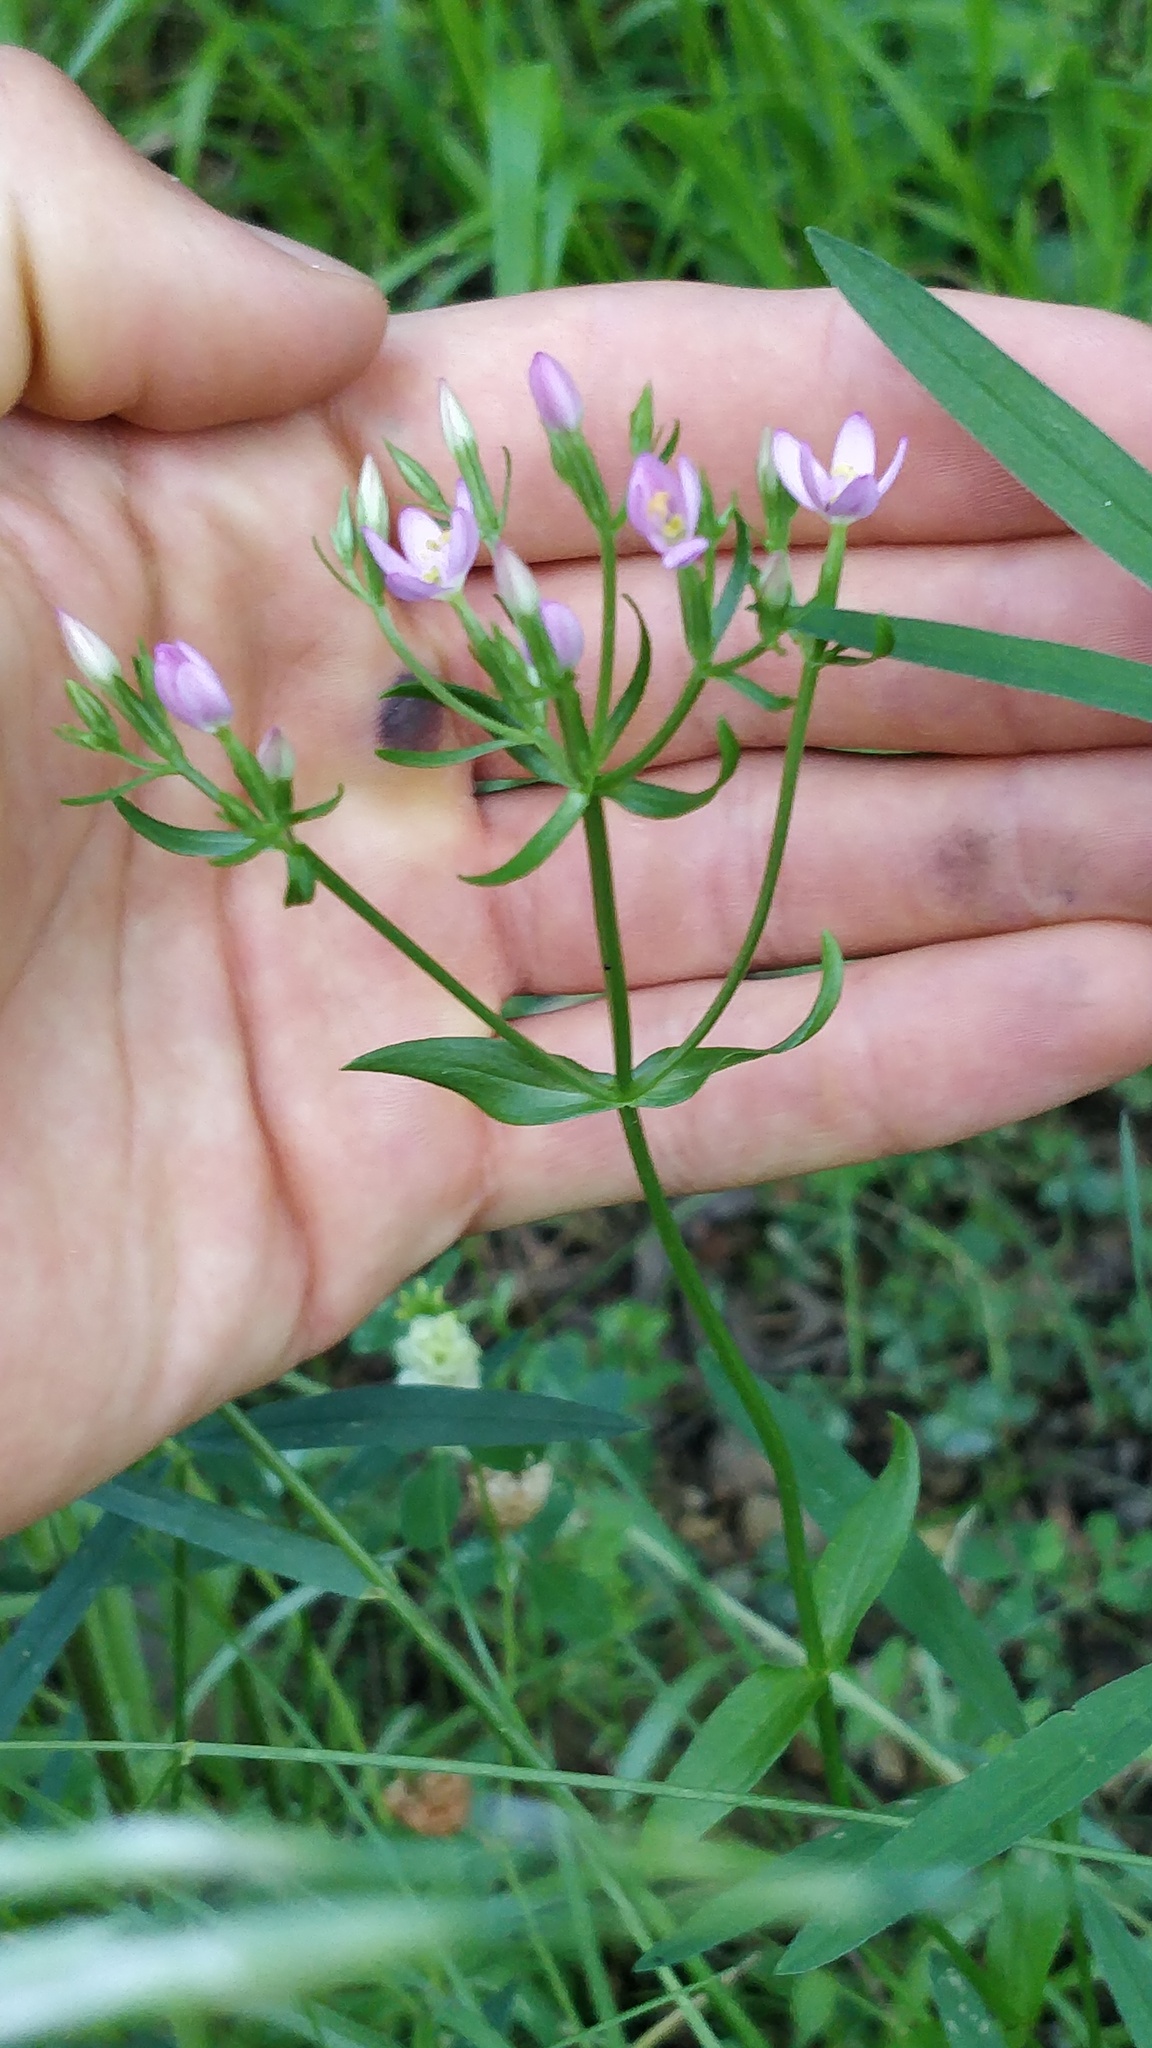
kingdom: Plantae
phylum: Tracheophyta
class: Magnoliopsida
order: Gentianales
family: Gentianaceae
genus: Centaurium
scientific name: Centaurium tenuiflorum
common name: Slender centaury
